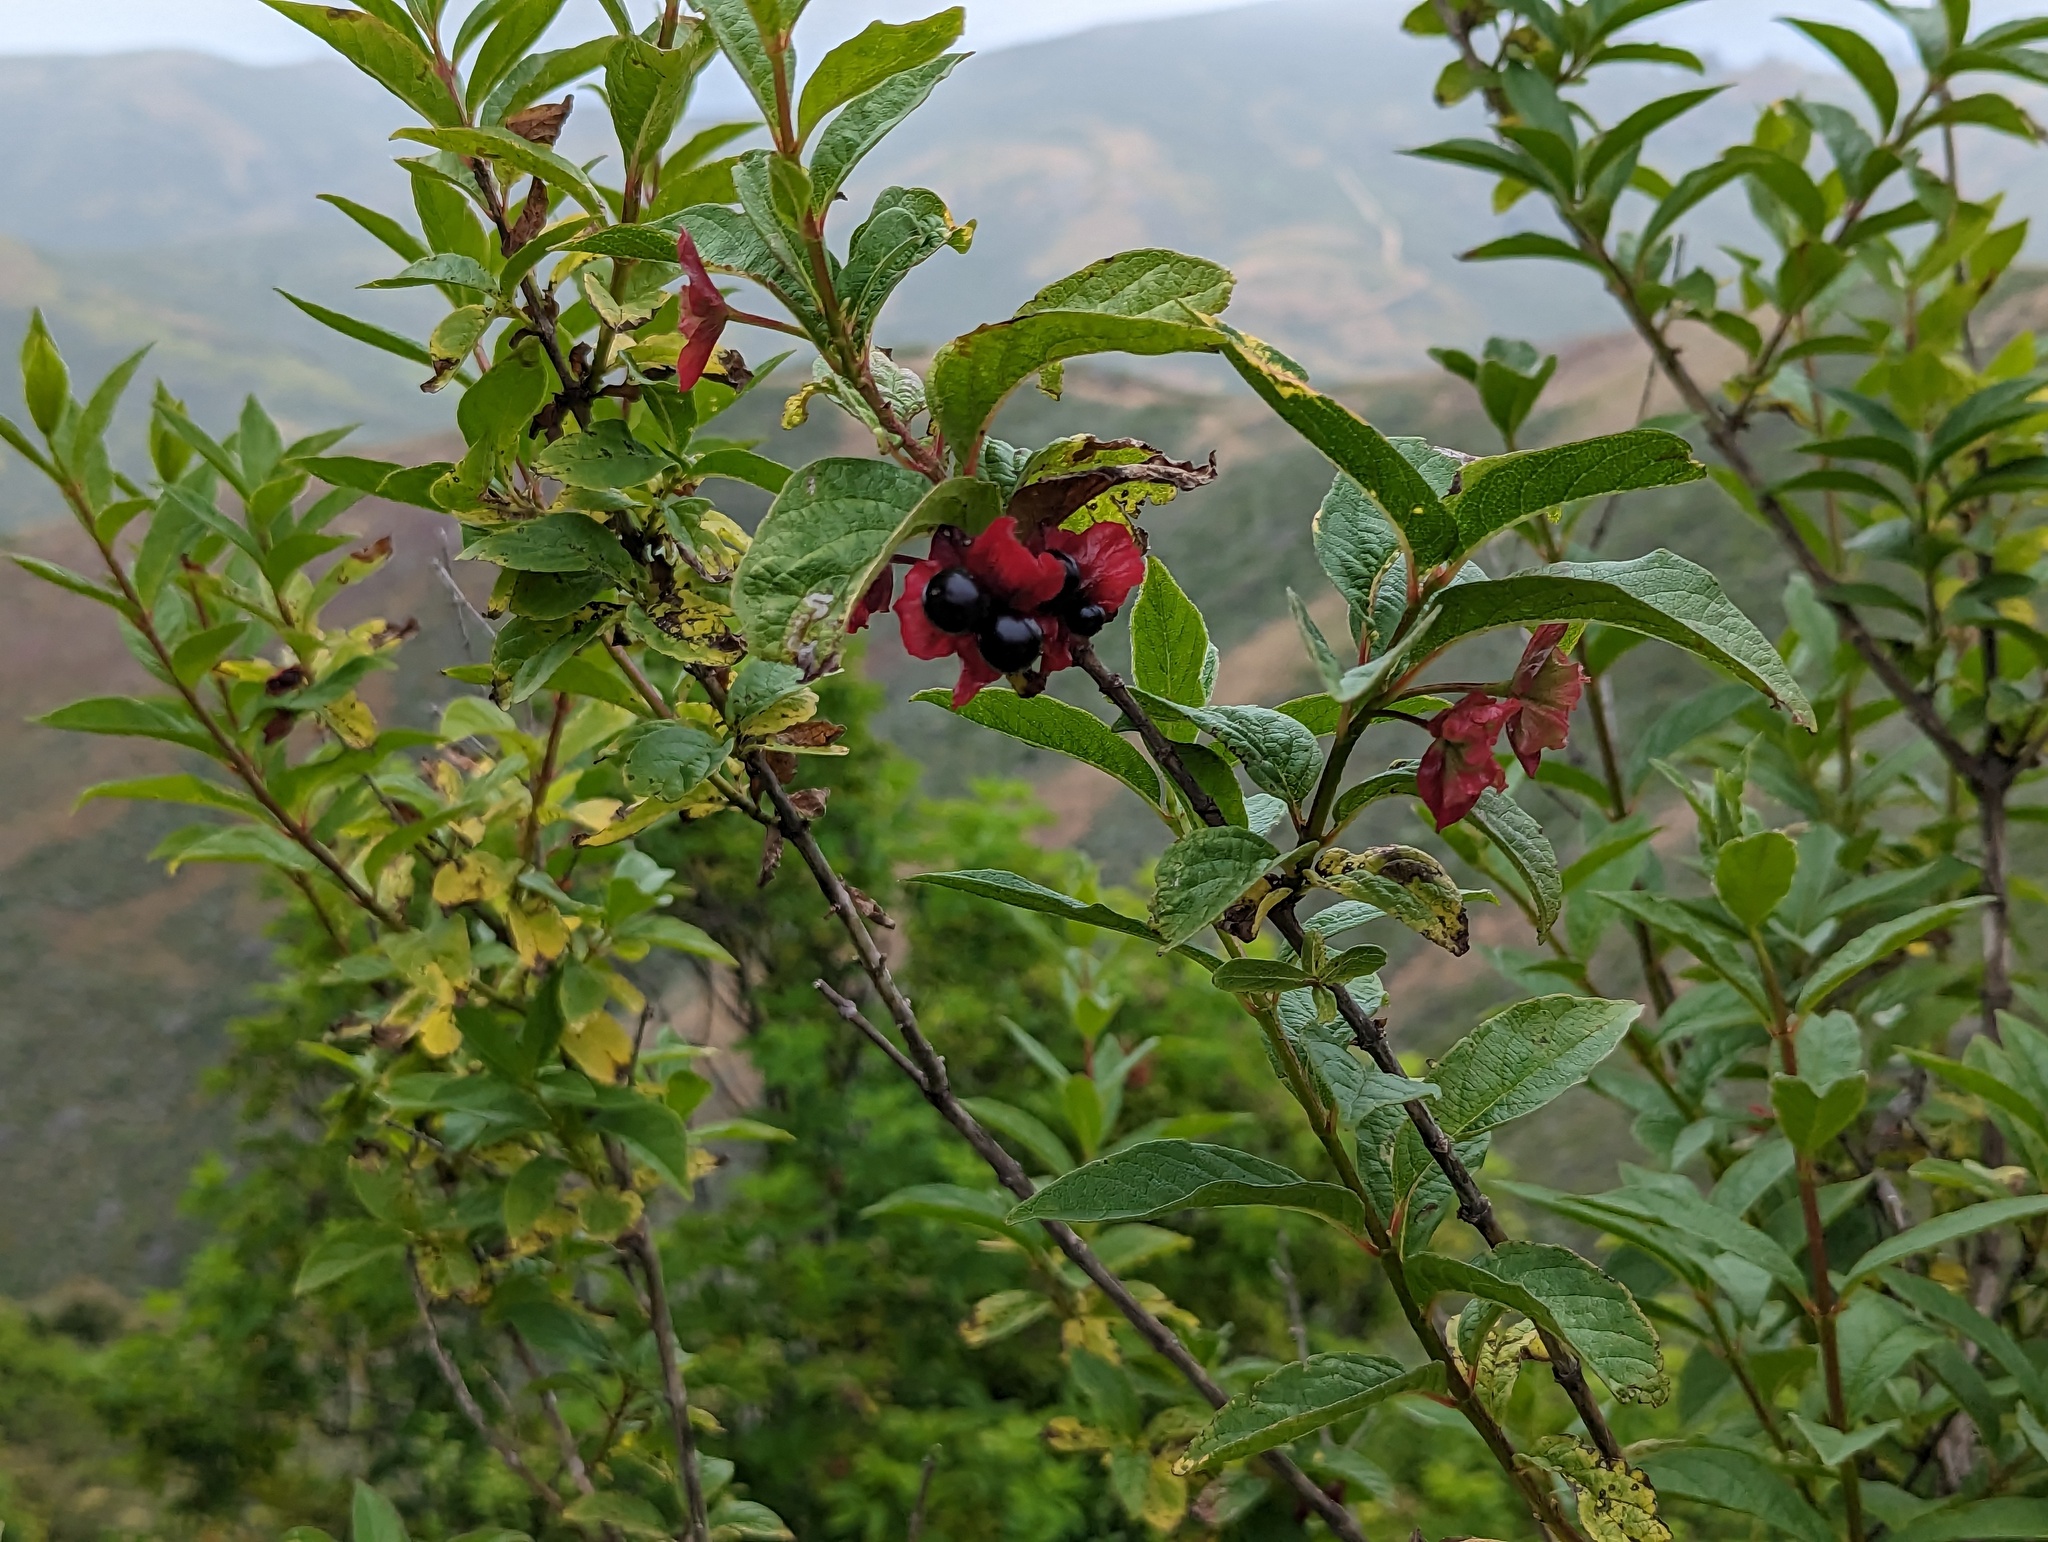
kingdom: Plantae
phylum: Tracheophyta
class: Magnoliopsida
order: Dipsacales
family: Caprifoliaceae
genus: Lonicera
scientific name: Lonicera involucrata
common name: Californian honeysuckle
